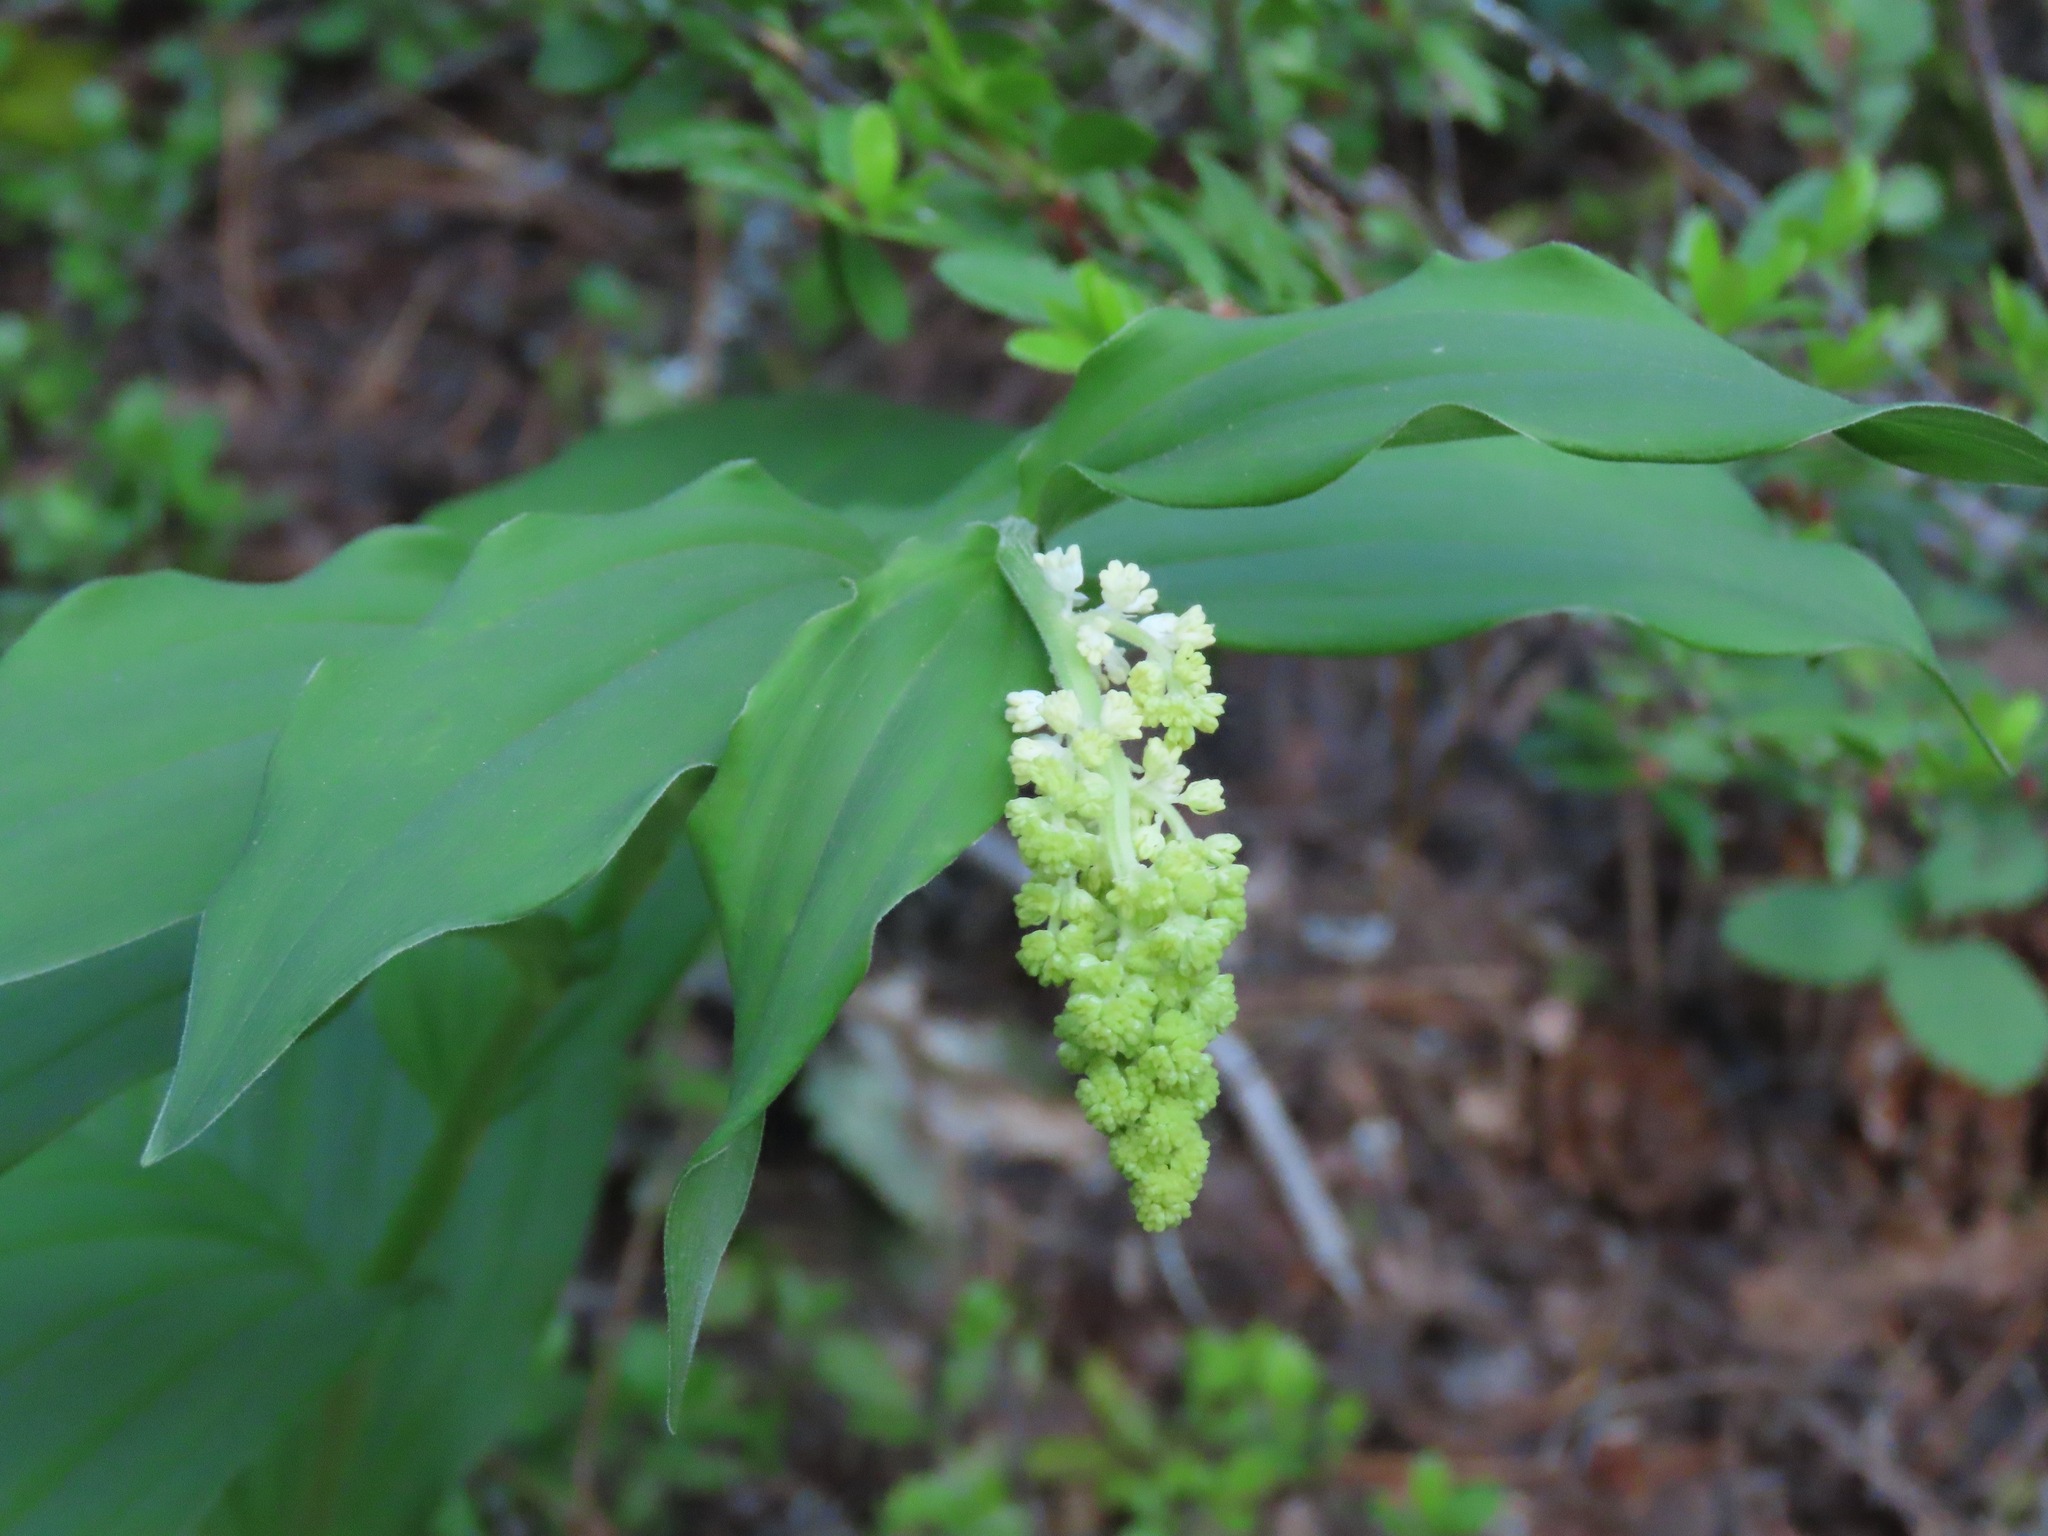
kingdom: Plantae
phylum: Tracheophyta
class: Liliopsida
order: Asparagales
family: Asparagaceae
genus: Maianthemum
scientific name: Maianthemum racemosum
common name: False spikenard
